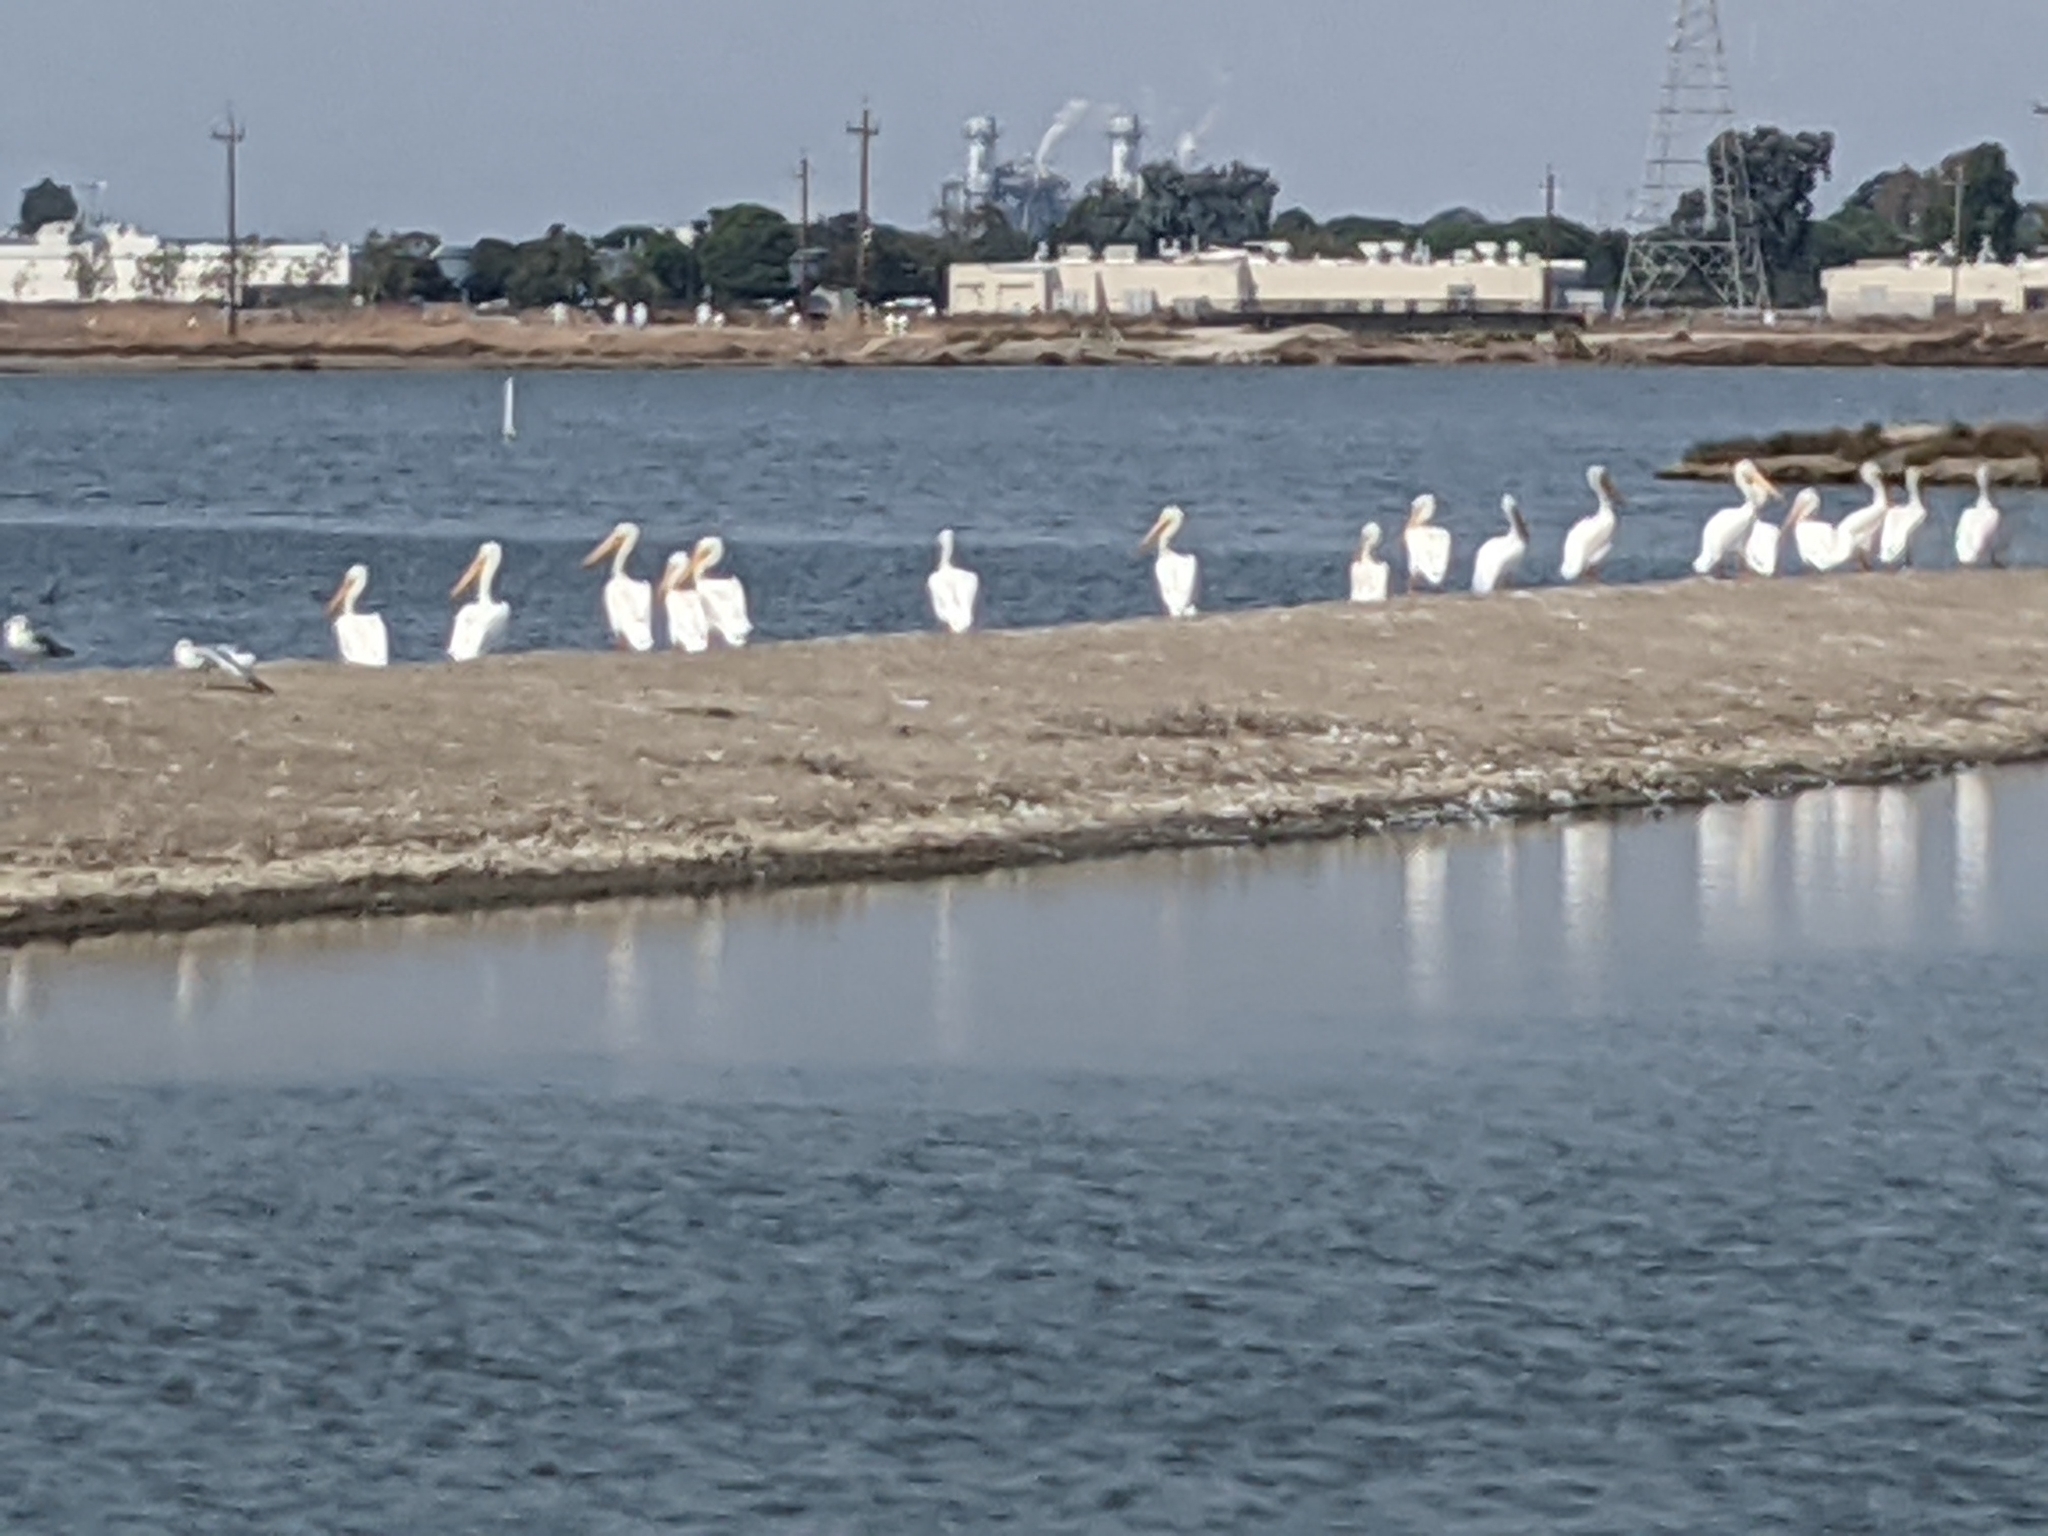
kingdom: Animalia
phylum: Chordata
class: Aves
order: Pelecaniformes
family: Pelecanidae
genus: Pelecanus
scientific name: Pelecanus erythrorhynchos
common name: American white pelican
